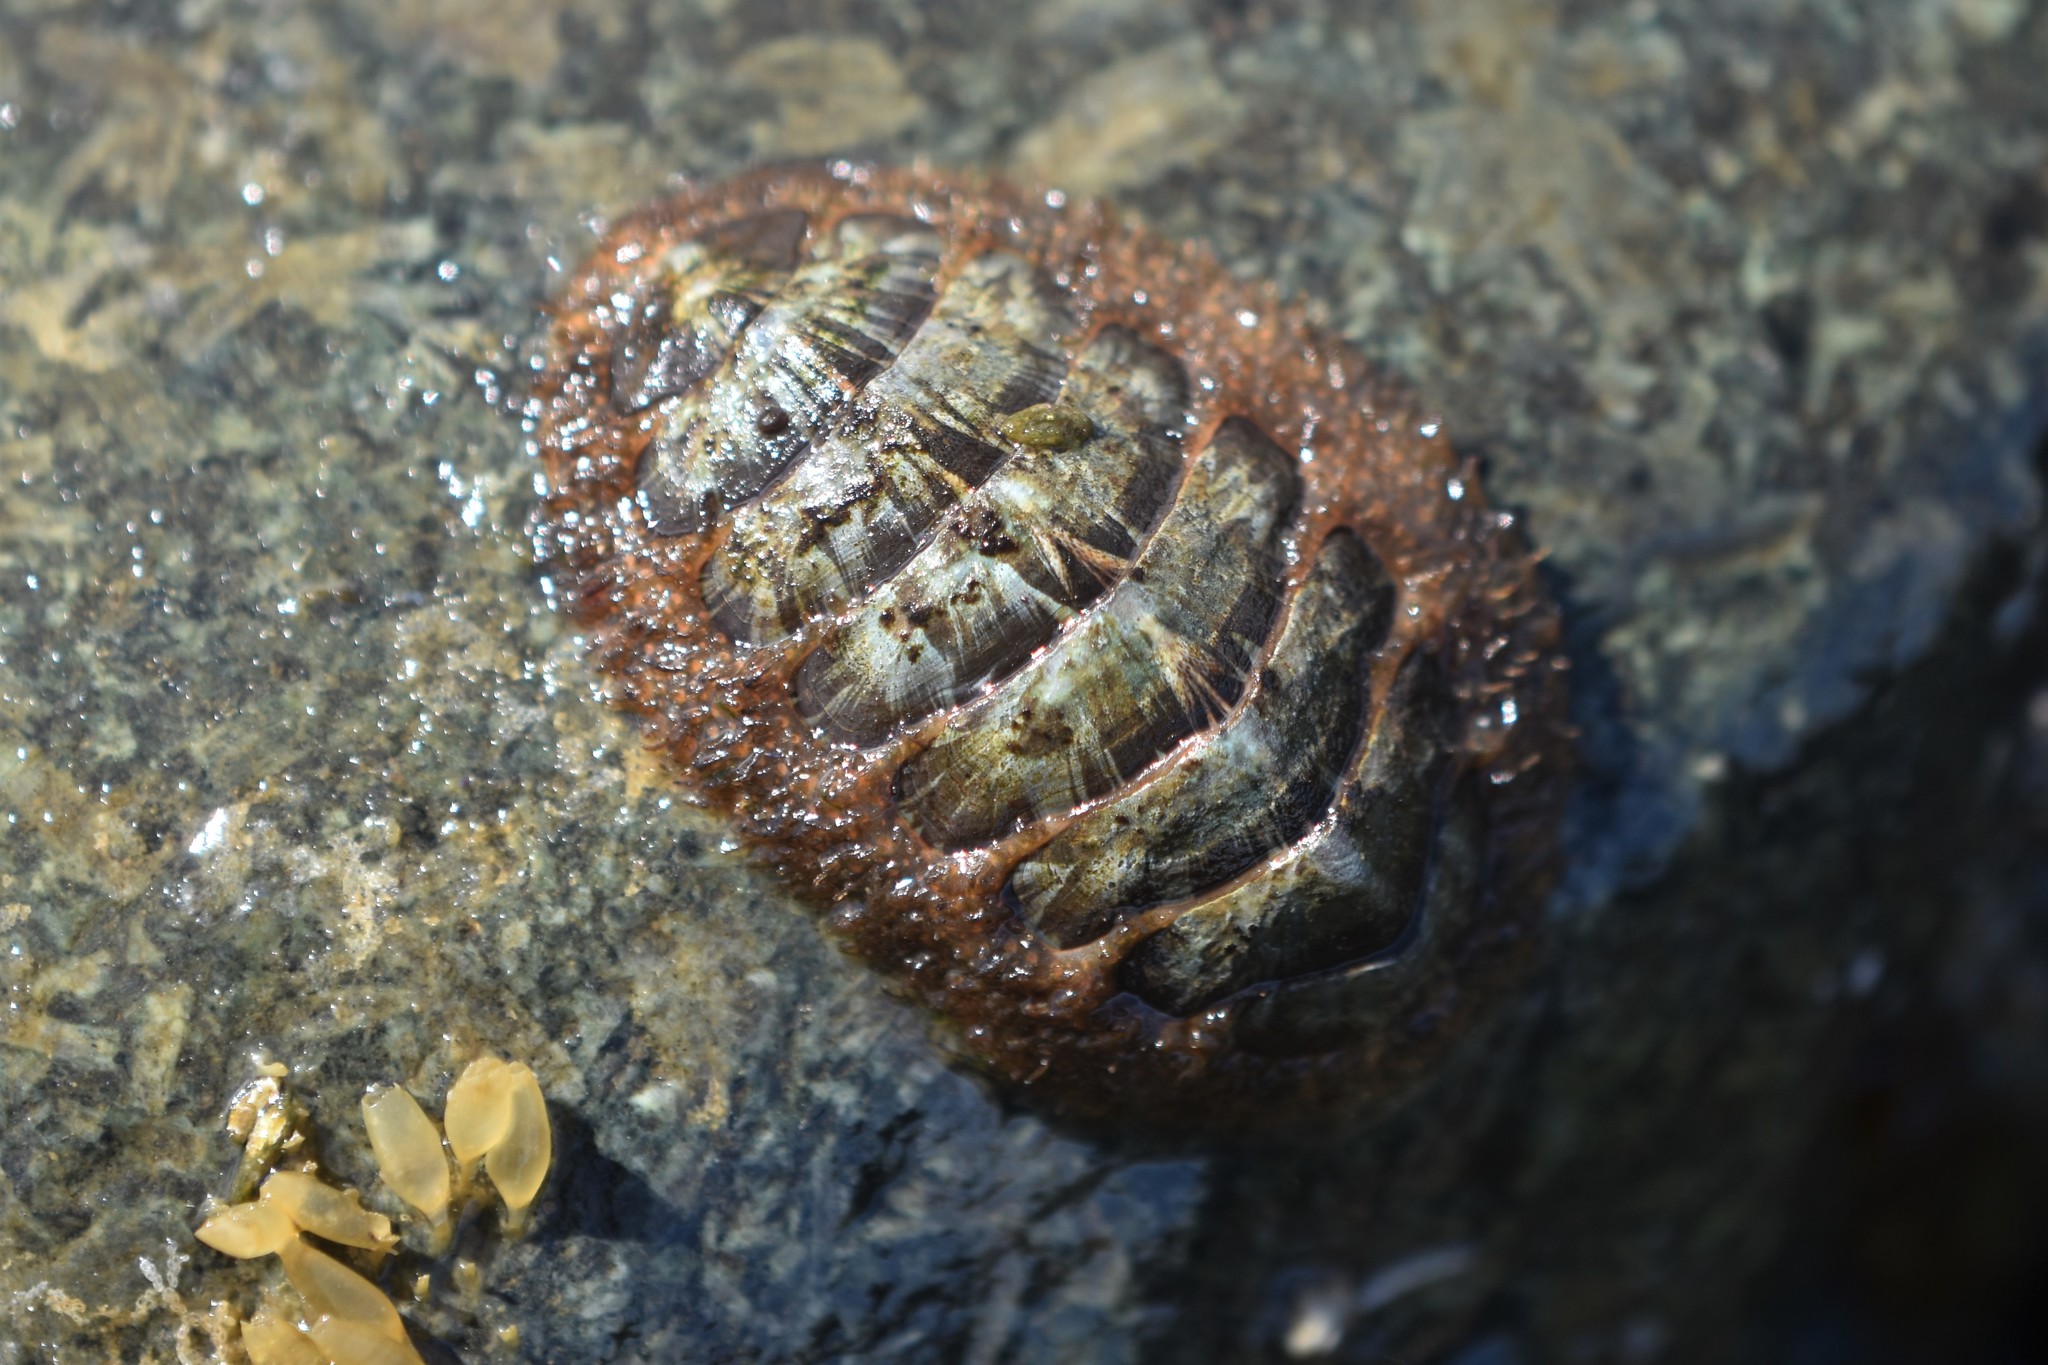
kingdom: Animalia
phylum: Mollusca
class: Polyplacophora
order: Chitonida
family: Mopaliidae
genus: Mopalia
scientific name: Mopalia lignosa
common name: Woody chiton
